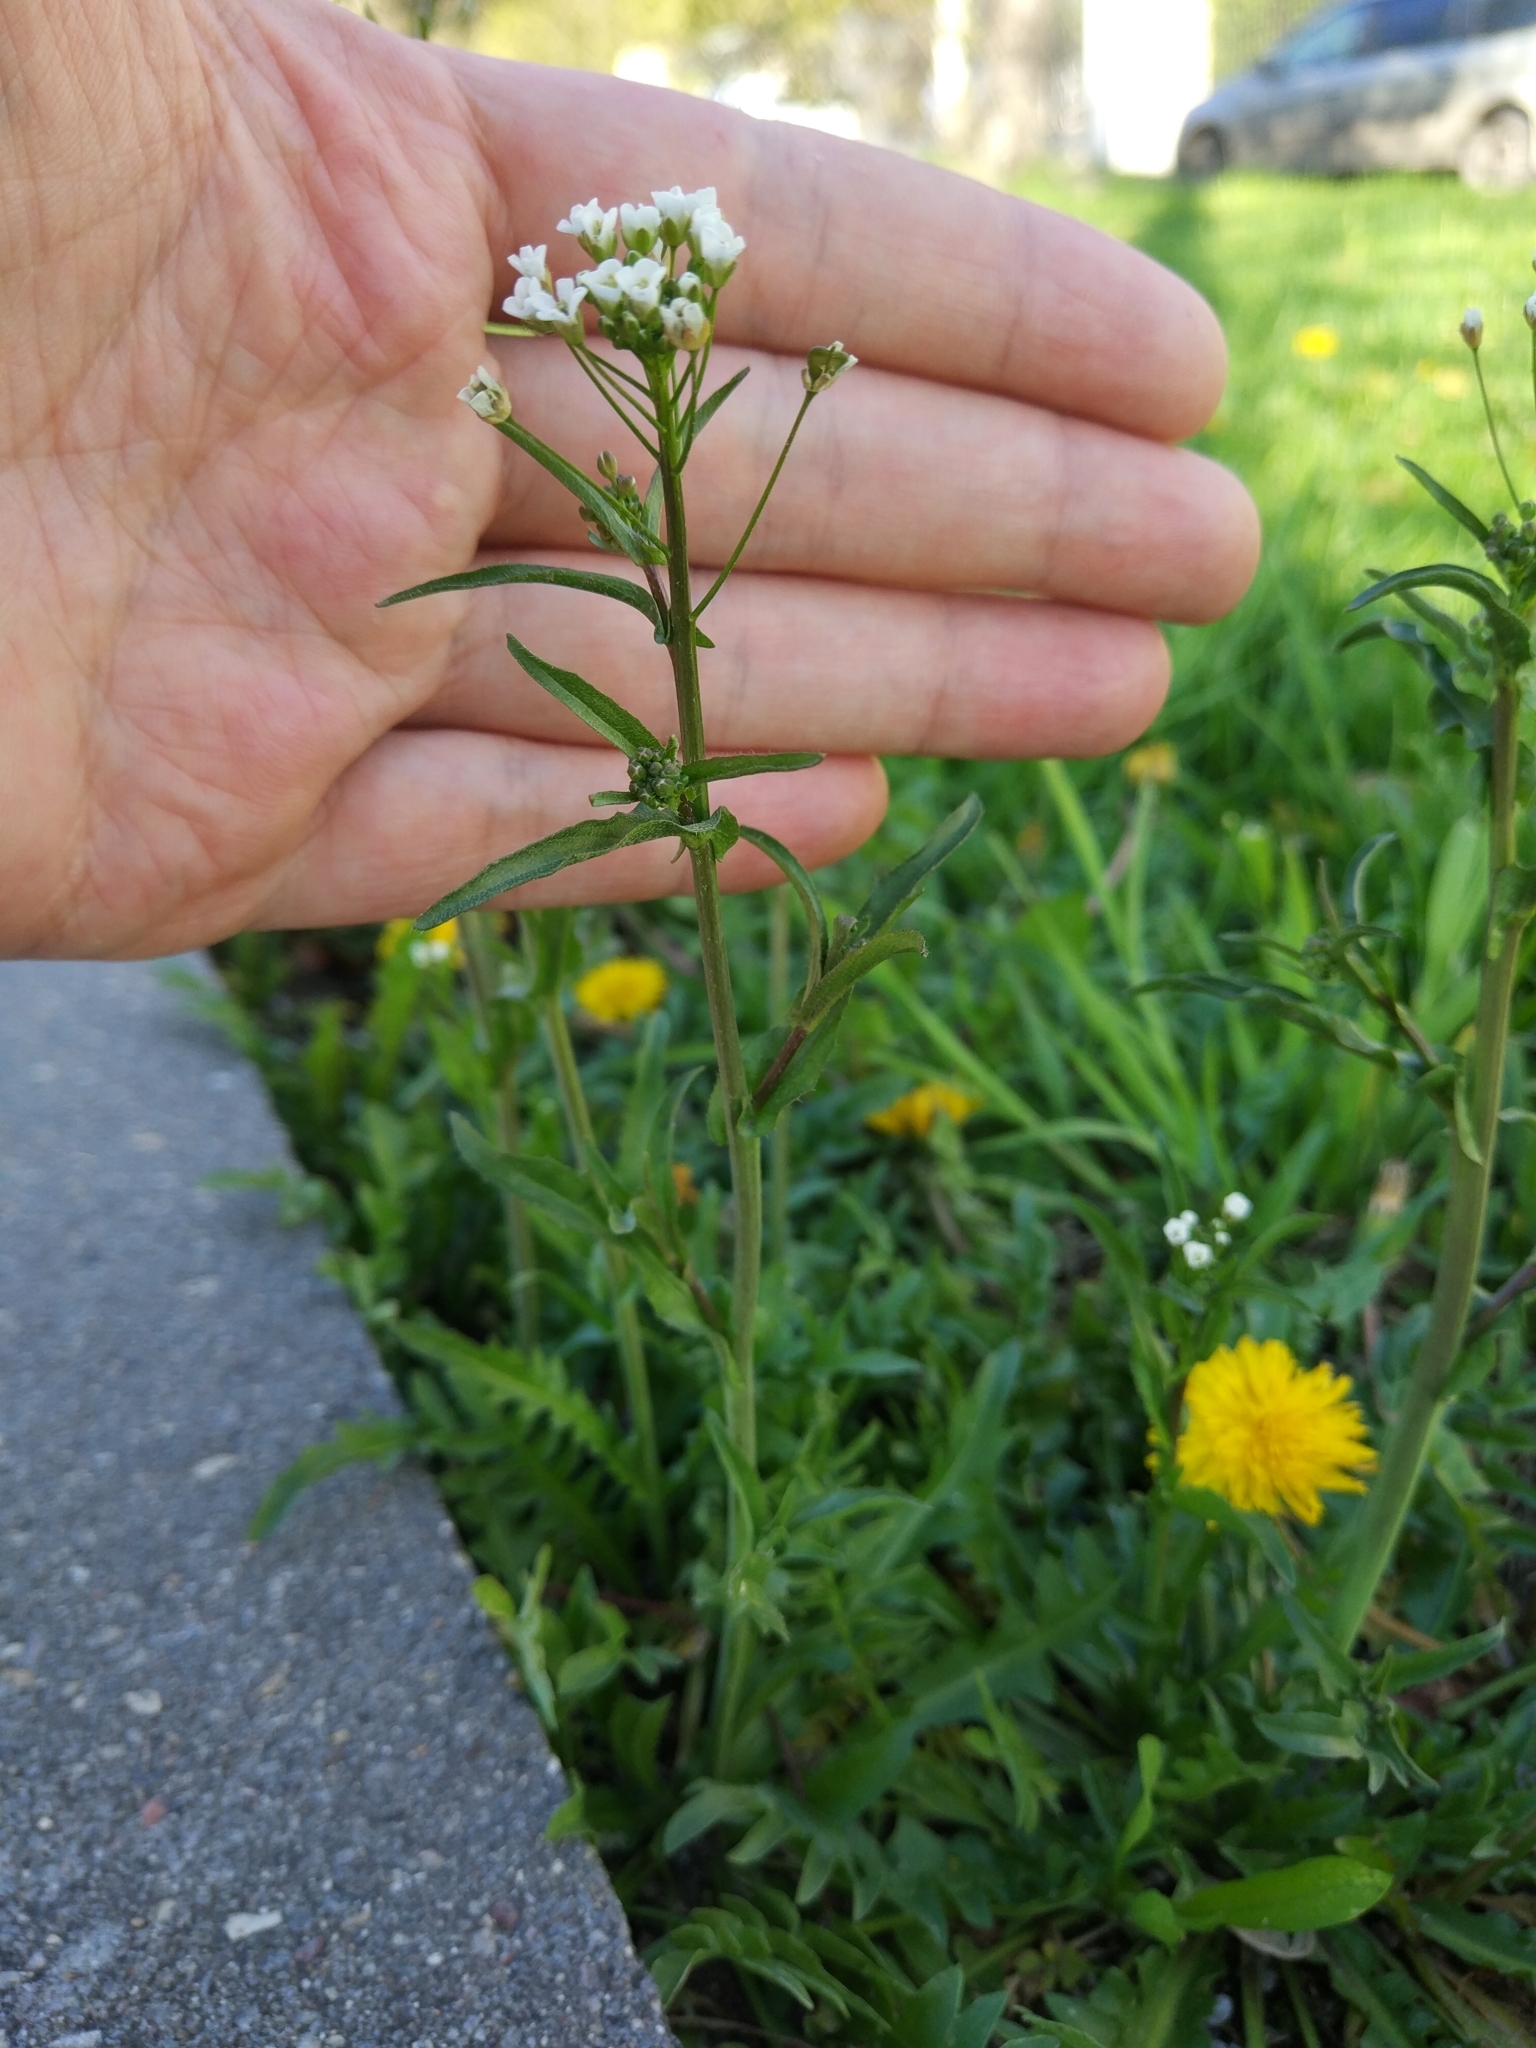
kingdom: Plantae
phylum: Tracheophyta
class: Magnoliopsida
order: Brassicales
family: Brassicaceae
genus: Capsella
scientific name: Capsella bursa-pastoris
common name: Shepherd's purse
